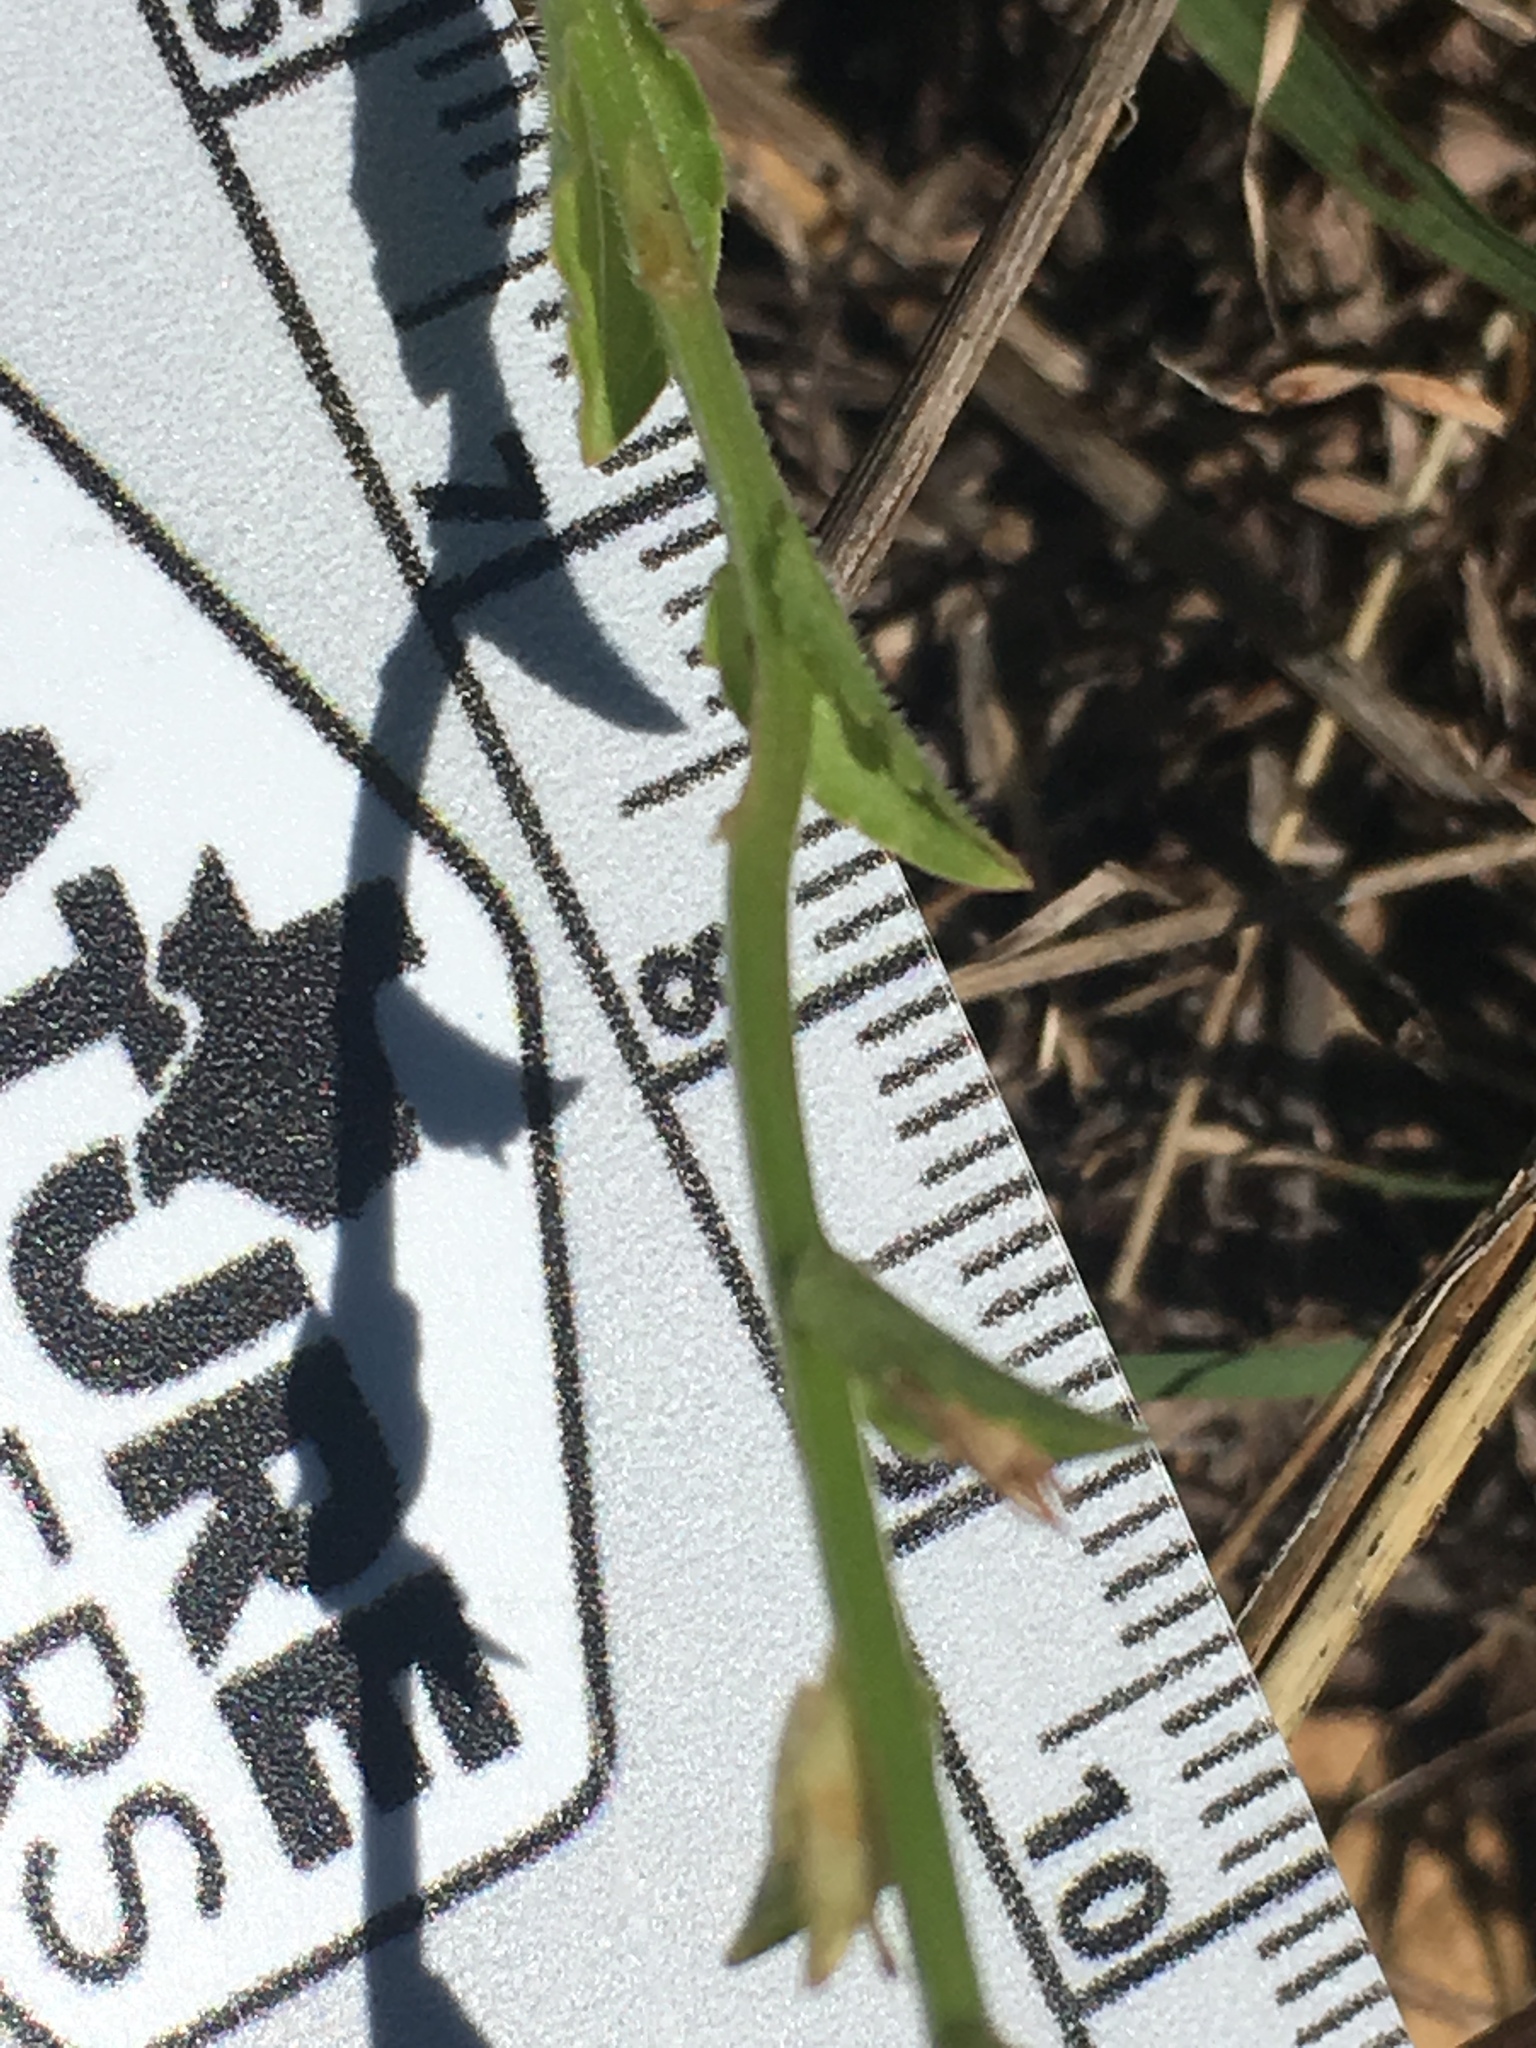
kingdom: Plantae
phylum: Tracheophyta
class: Magnoliopsida
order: Asterales
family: Campanulaceae
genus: Triodanis
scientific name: Triodanis perfoliata
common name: Clasping venus' looking-glass
